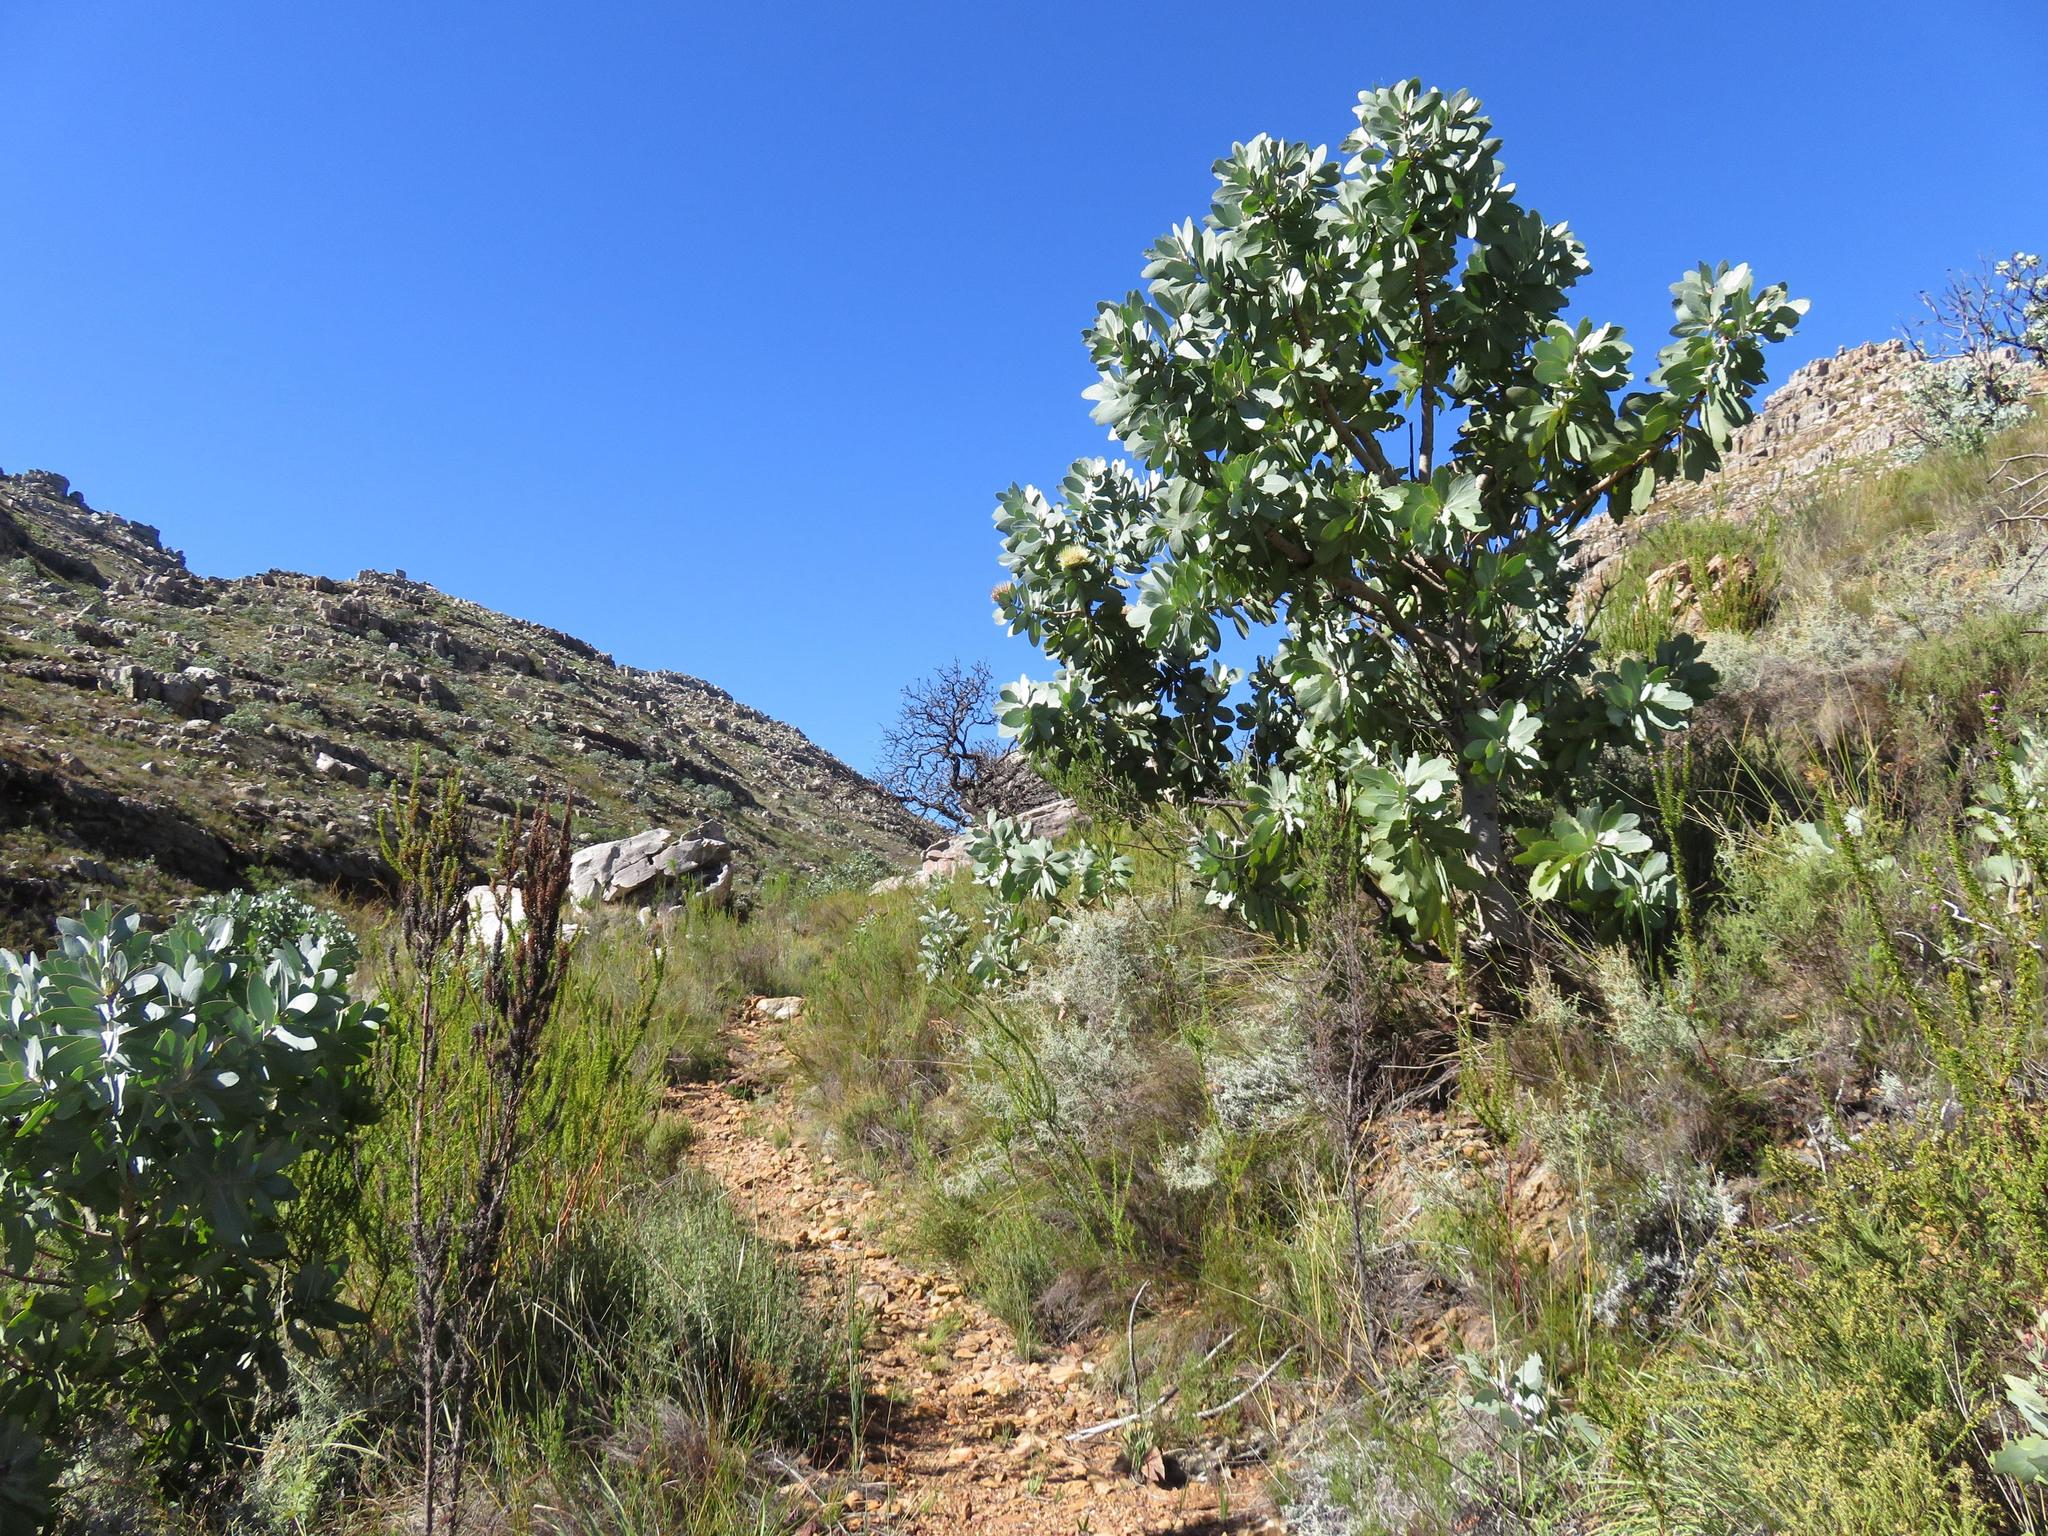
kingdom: Plantae
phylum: Tracheophyta
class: Magnoliopsida
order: Proteales
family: Proteaceae
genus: Protea
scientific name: Protea nitida
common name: Tree protea
